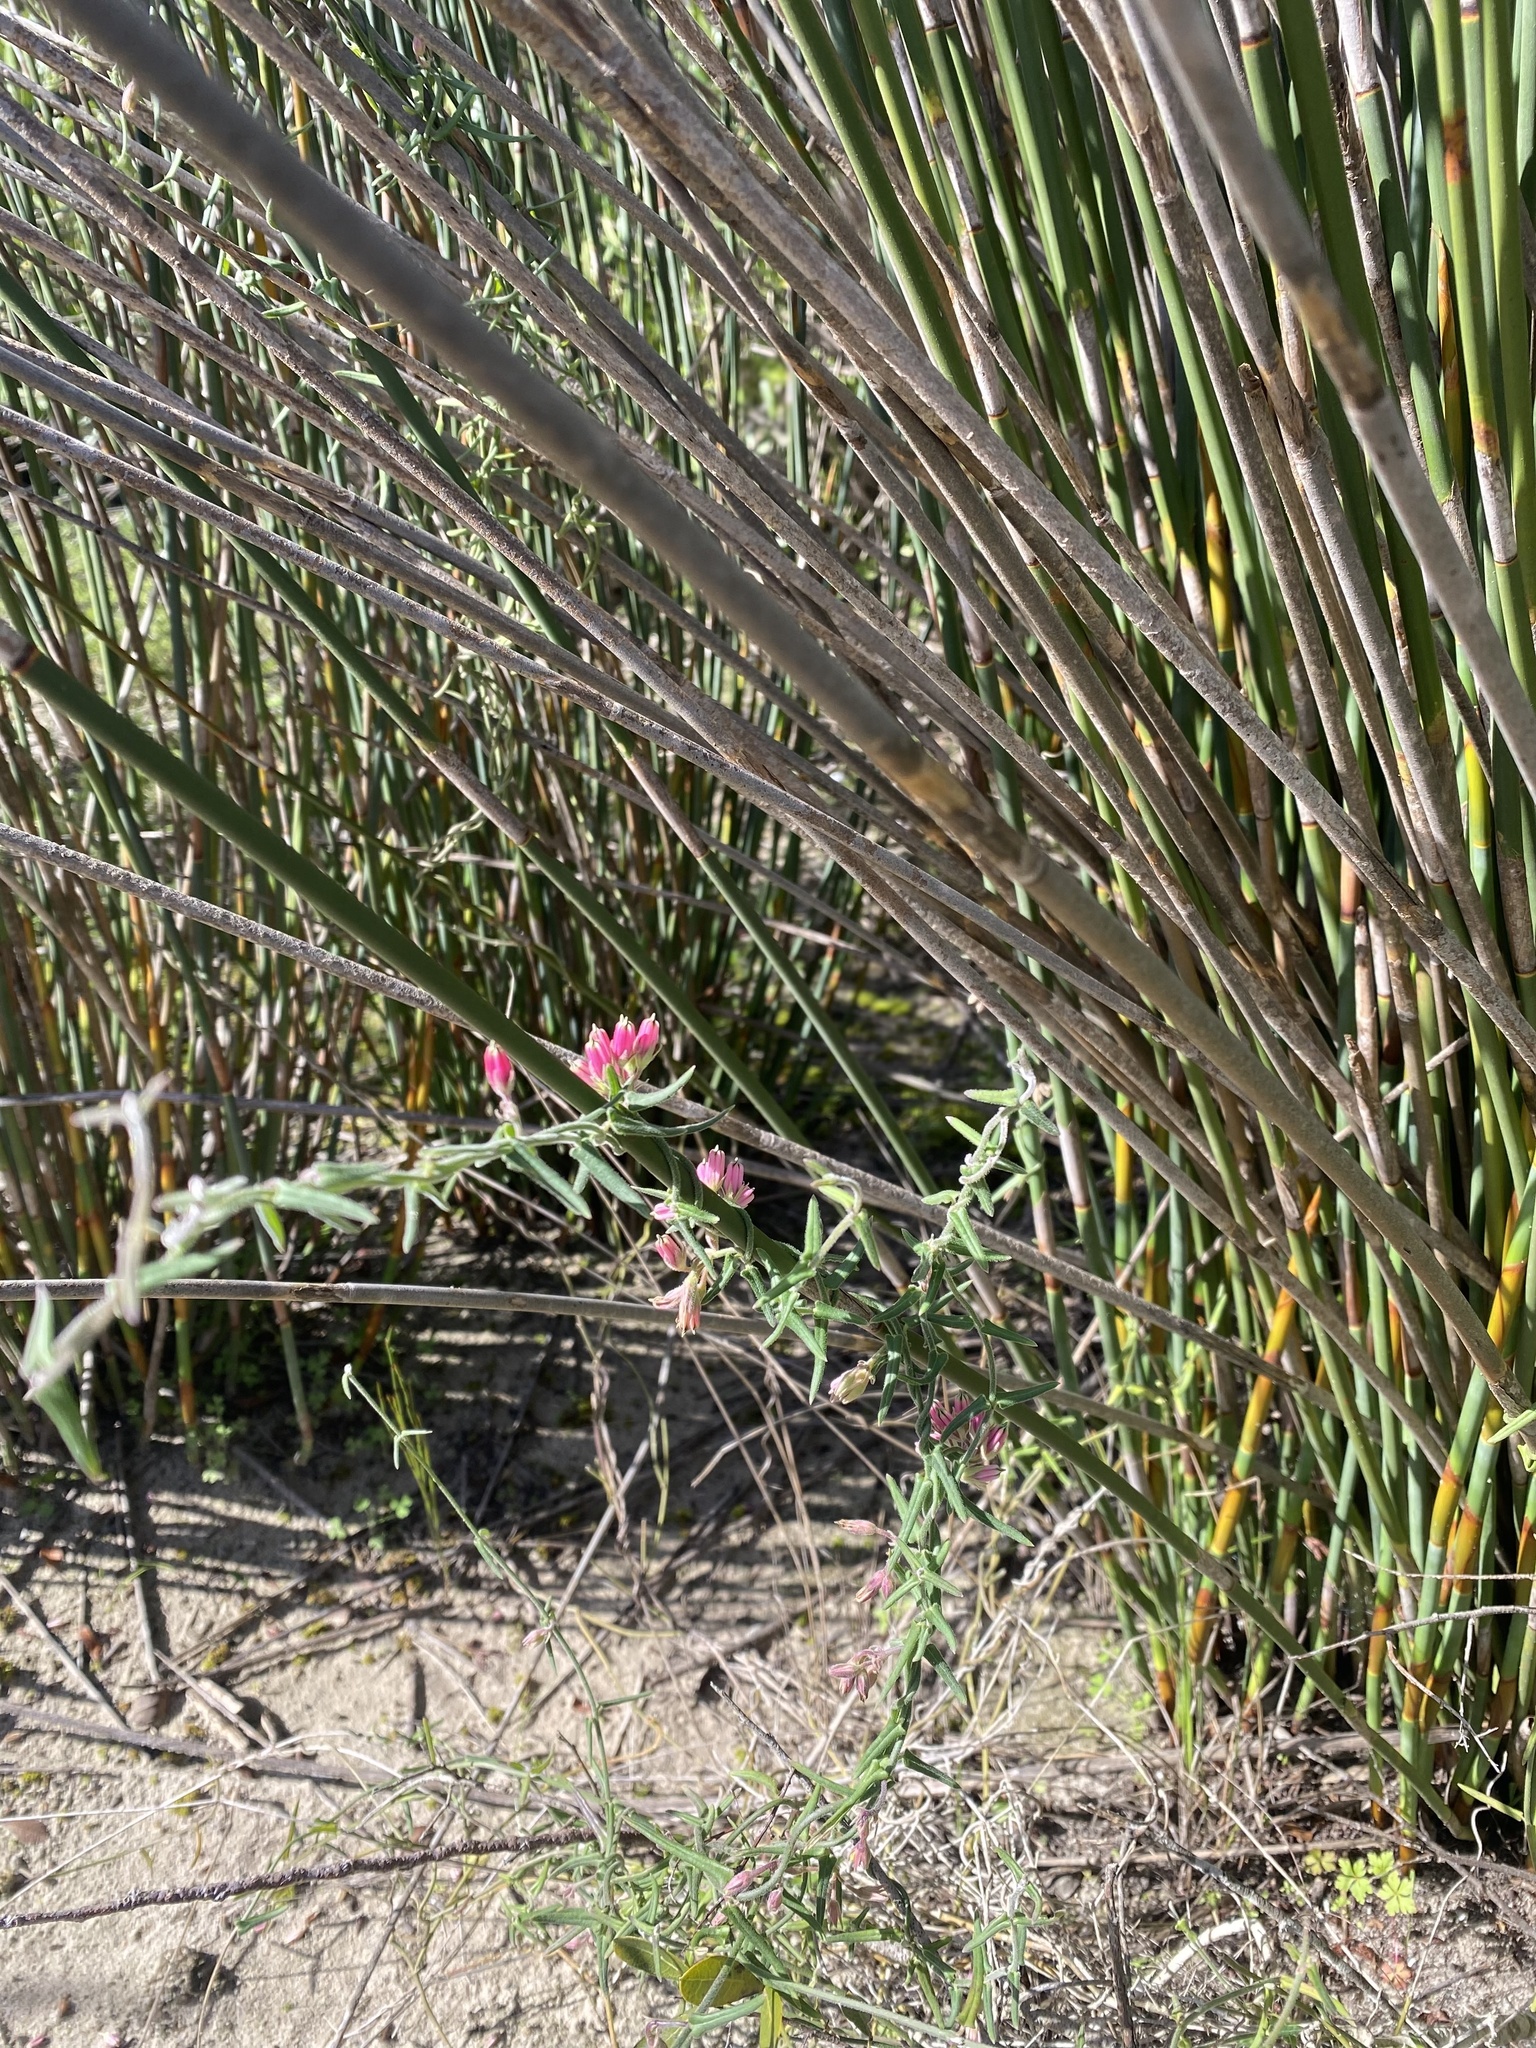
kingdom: Plantae
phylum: Tracheophyta
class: Magnoliopsida
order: Gentianales
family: Apocynaceae
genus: Microloma
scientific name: Microloma sagittatum
